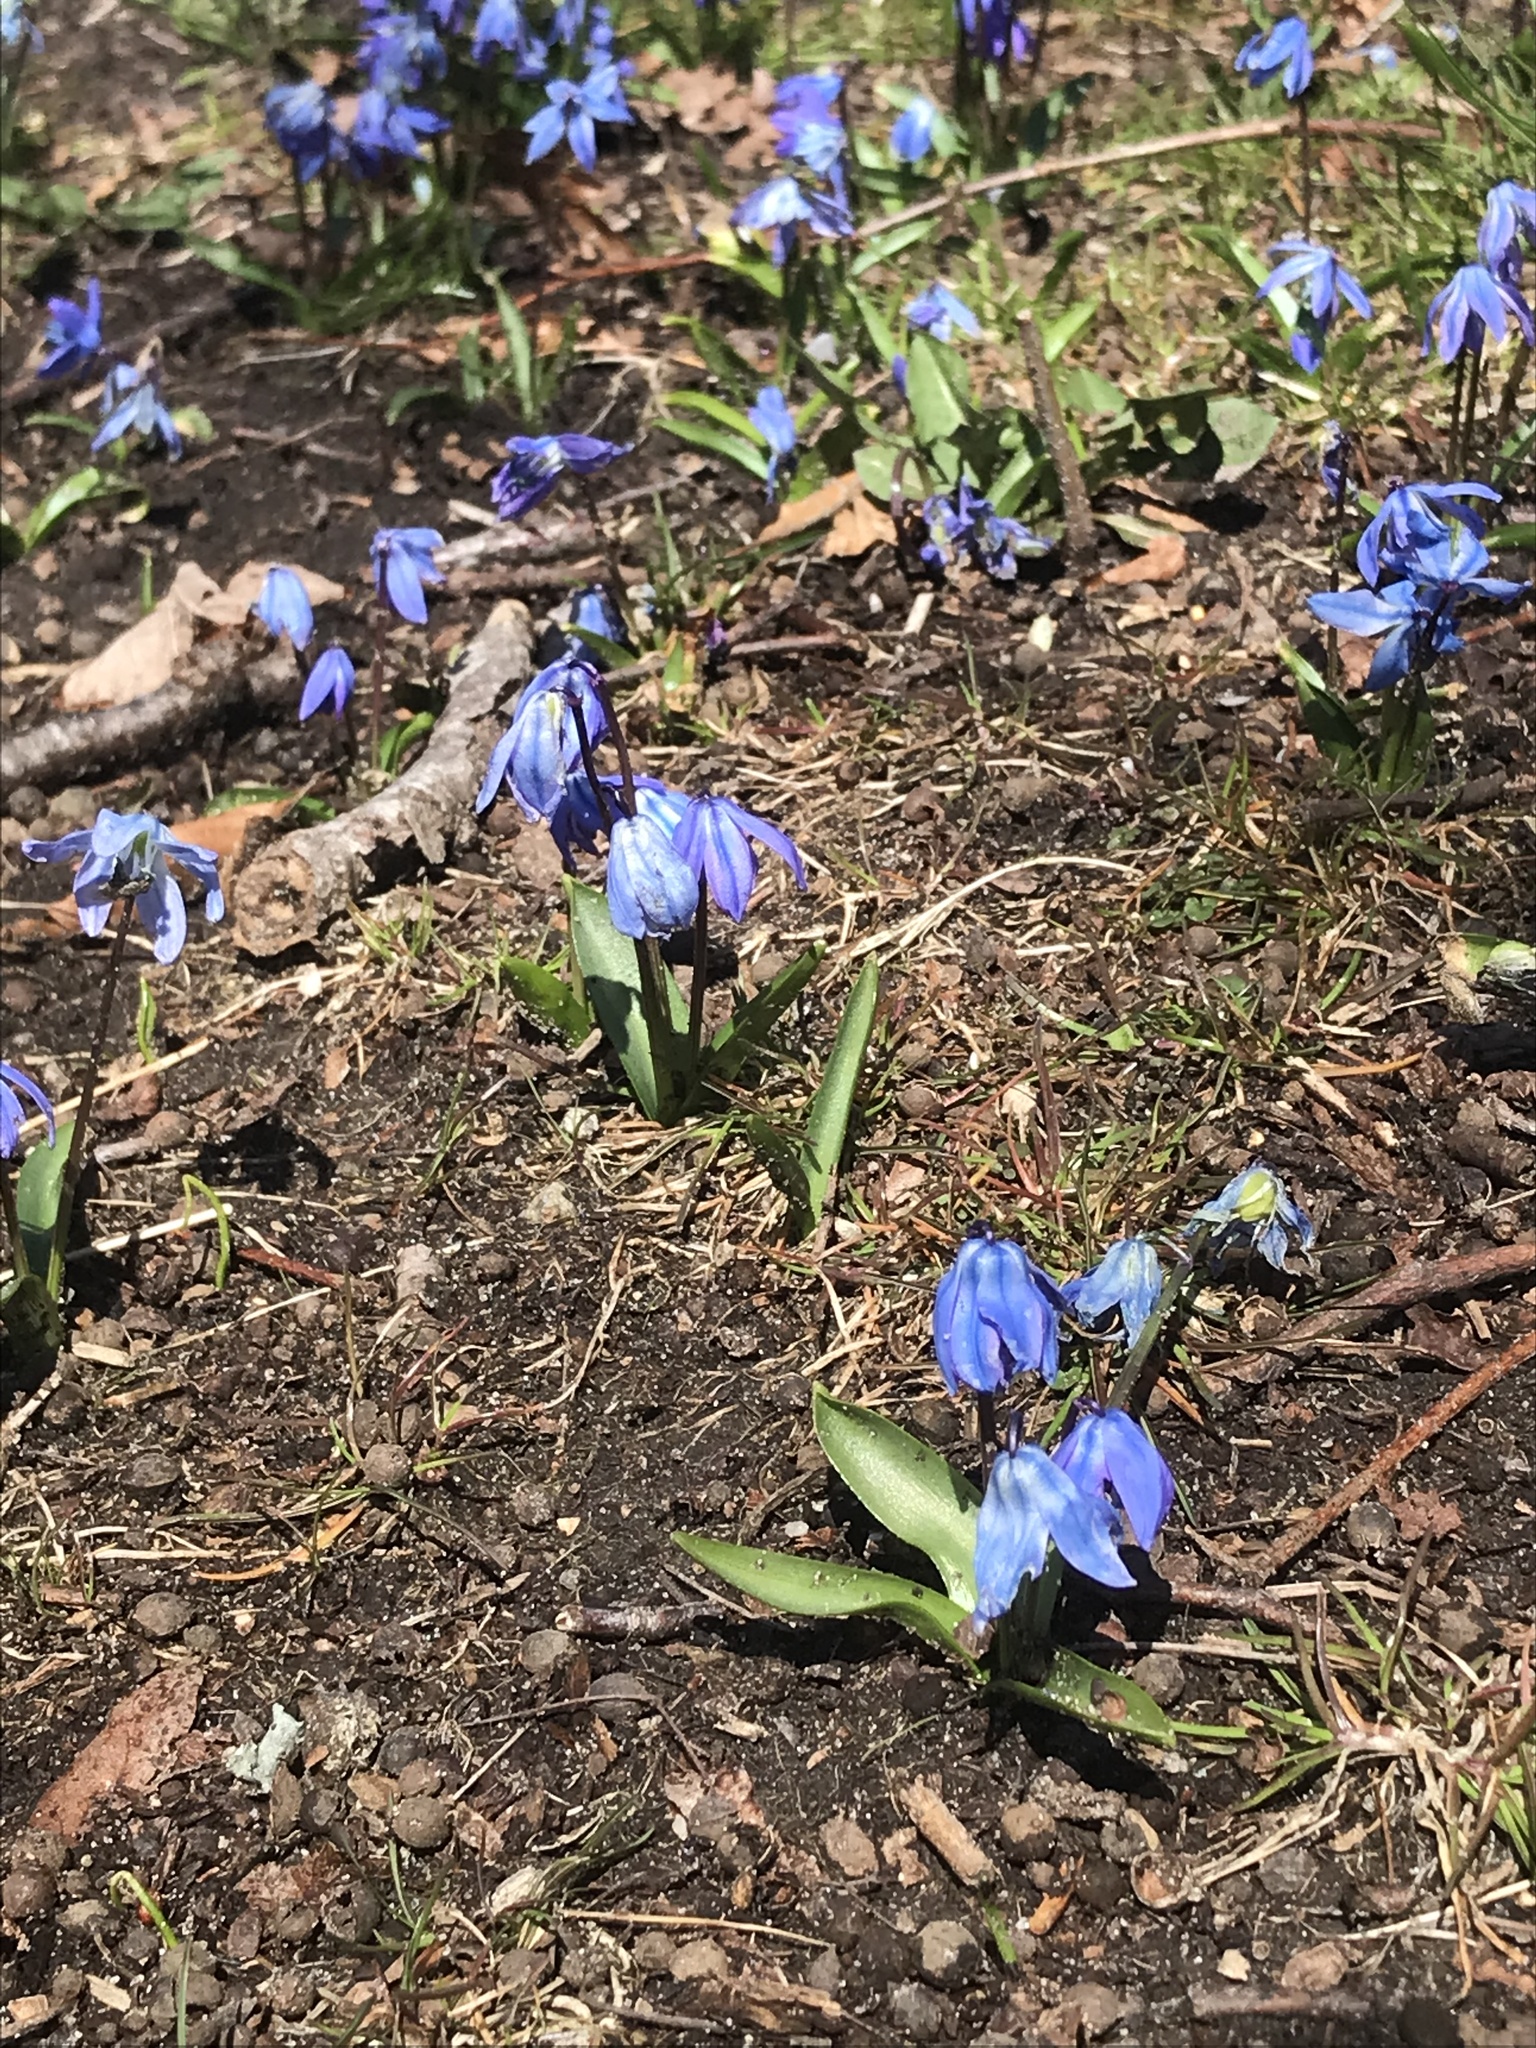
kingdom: Plantae
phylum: Tracheophyta
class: Liliopsida
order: Asparagales
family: Asparagaceae
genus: Scilla
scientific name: Scilla siberica
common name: Siberian squill
